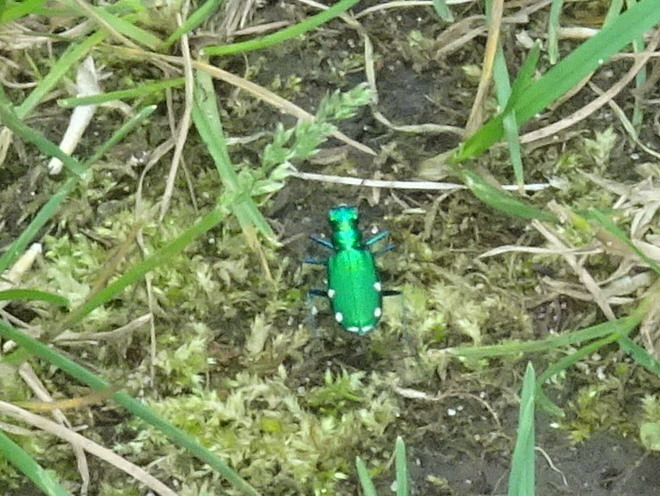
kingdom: Animalia
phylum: Arthropoda
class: Insecta
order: Coleoptera
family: Carabidae
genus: Cicindela
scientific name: Cicindela sexguttata
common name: Six-spotted tiger beetle
